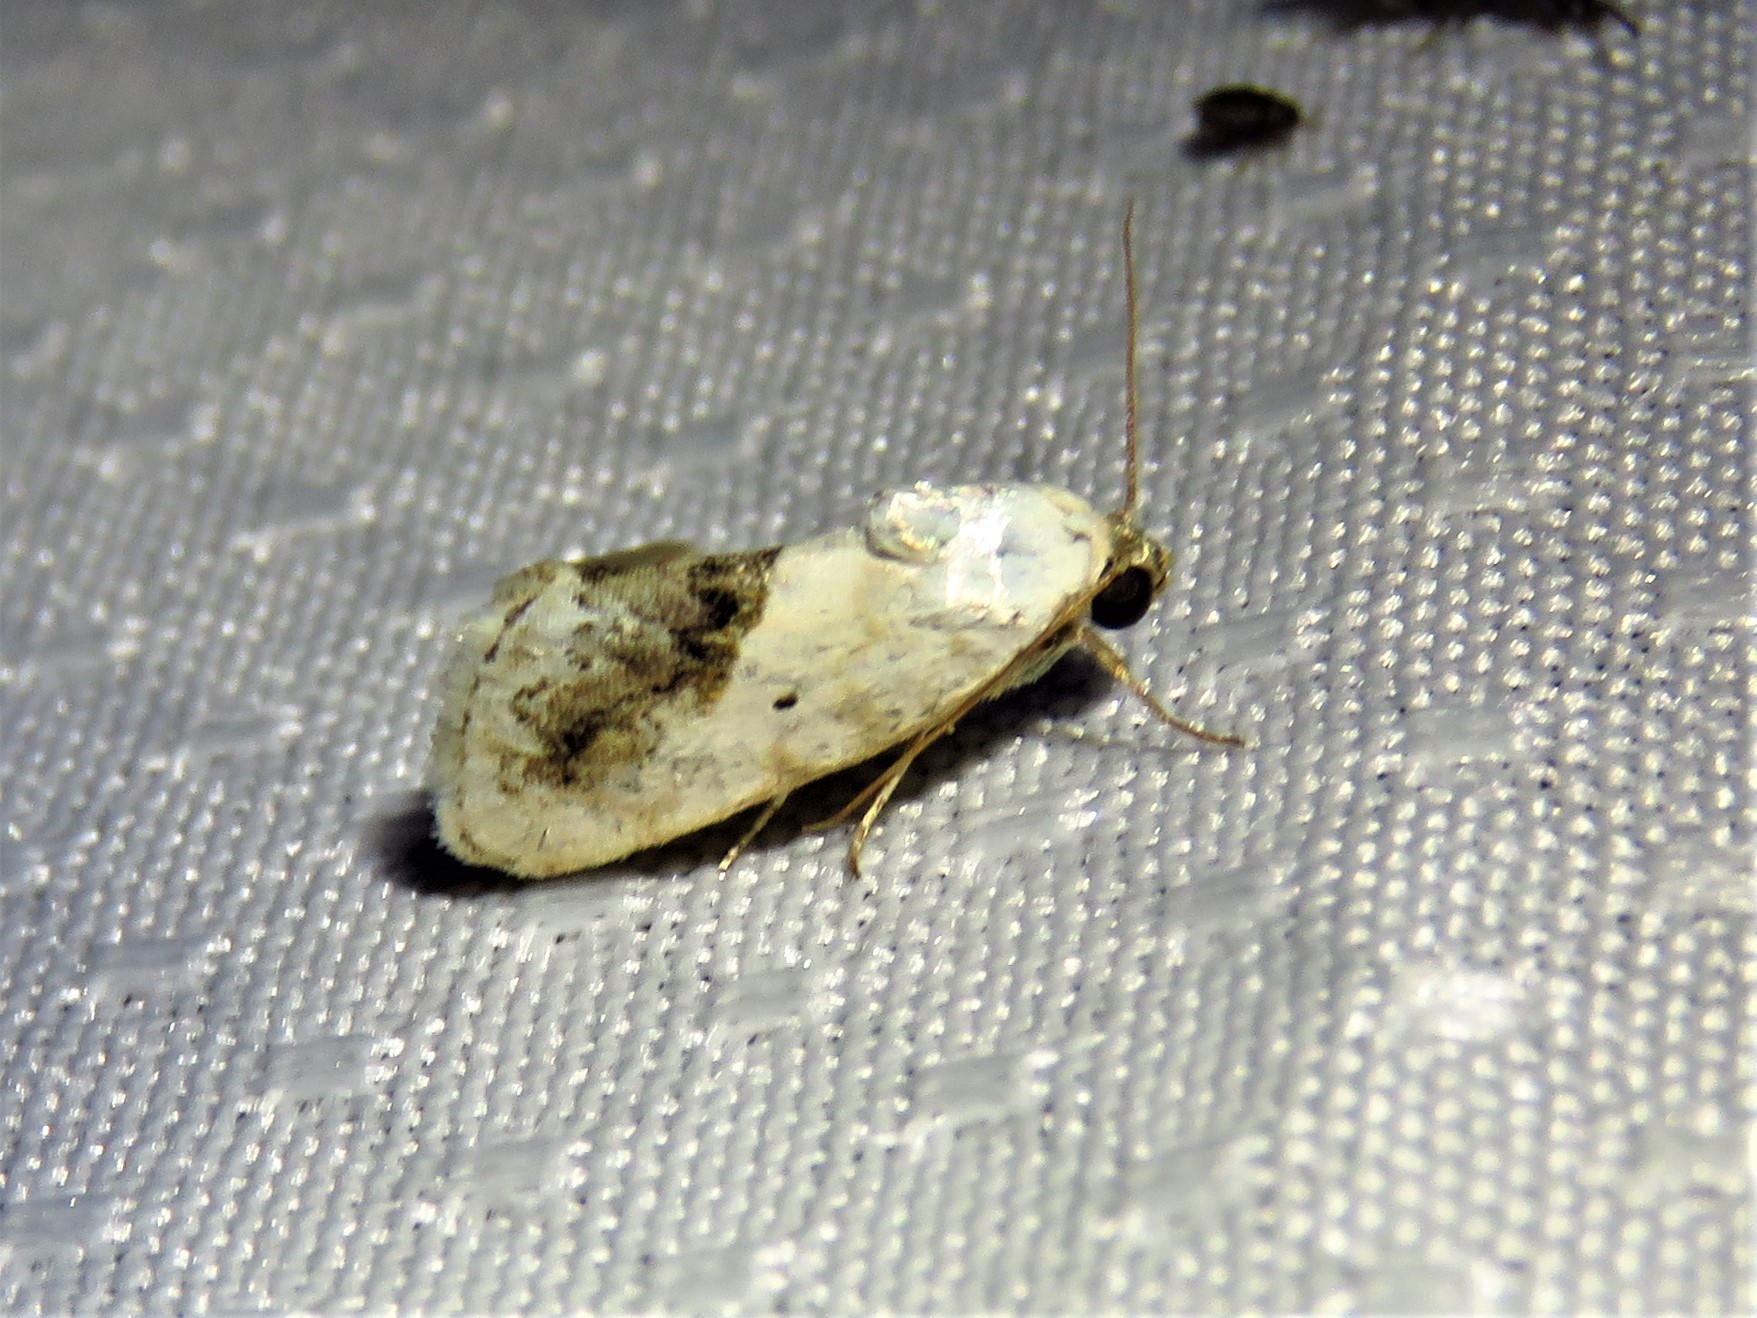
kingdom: Animalia
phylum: Arthropoda
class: Insecta
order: Lepidoptera
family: Noctuidae
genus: Acontia
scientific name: Acontia erastrioides
